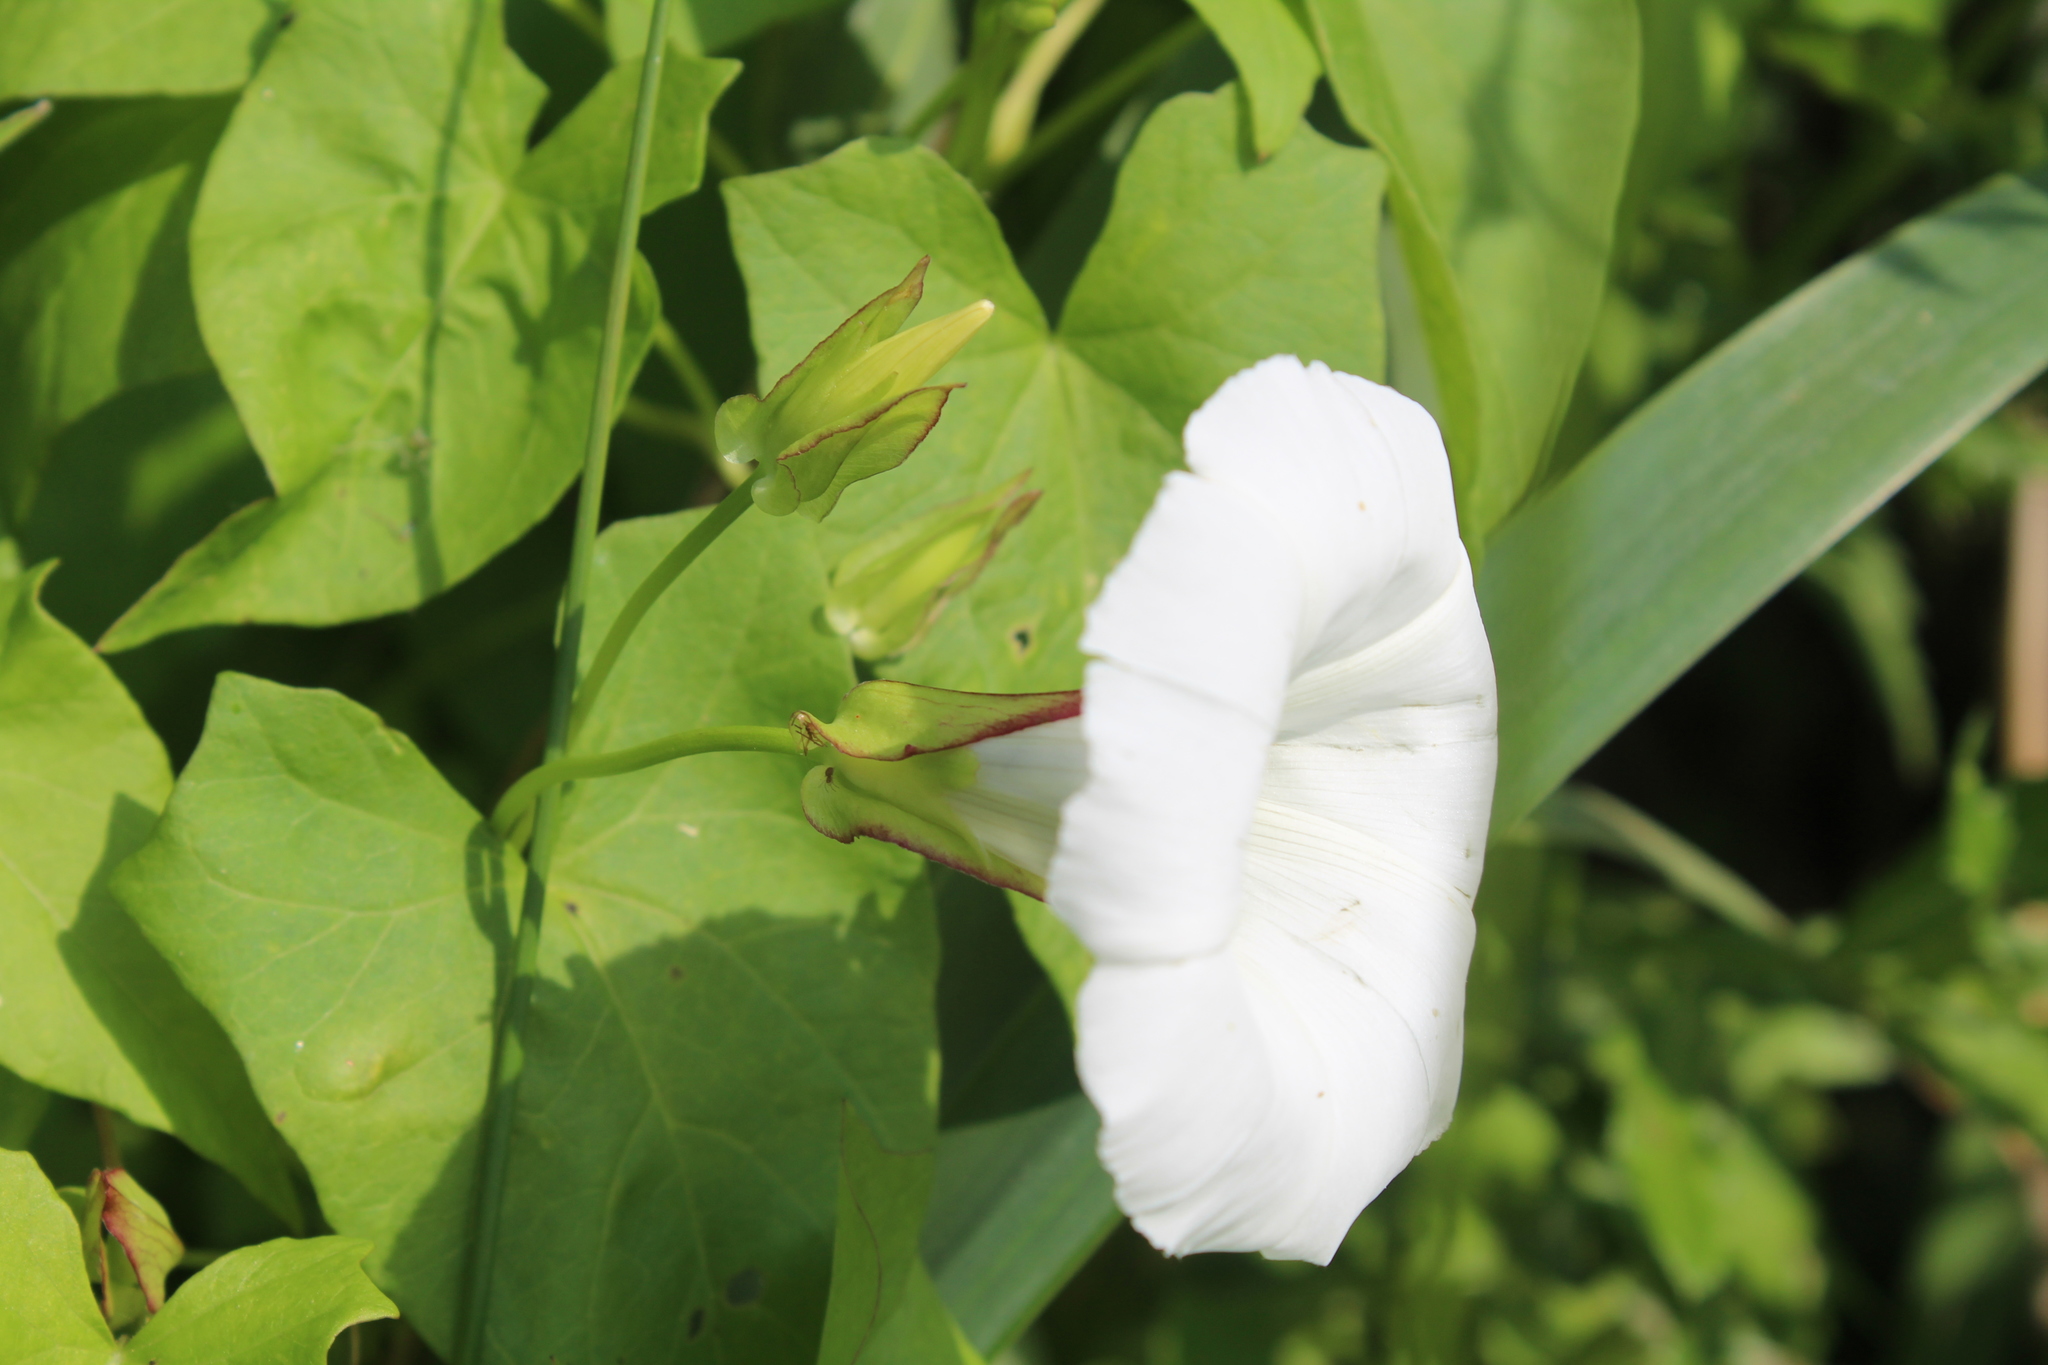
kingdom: Plantae
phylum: Tracheophyta
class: Magnoliopsida
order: Solanales
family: Convolvulaceae
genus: Calystegia
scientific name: Calystegia sepium
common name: Hedge bindweed
